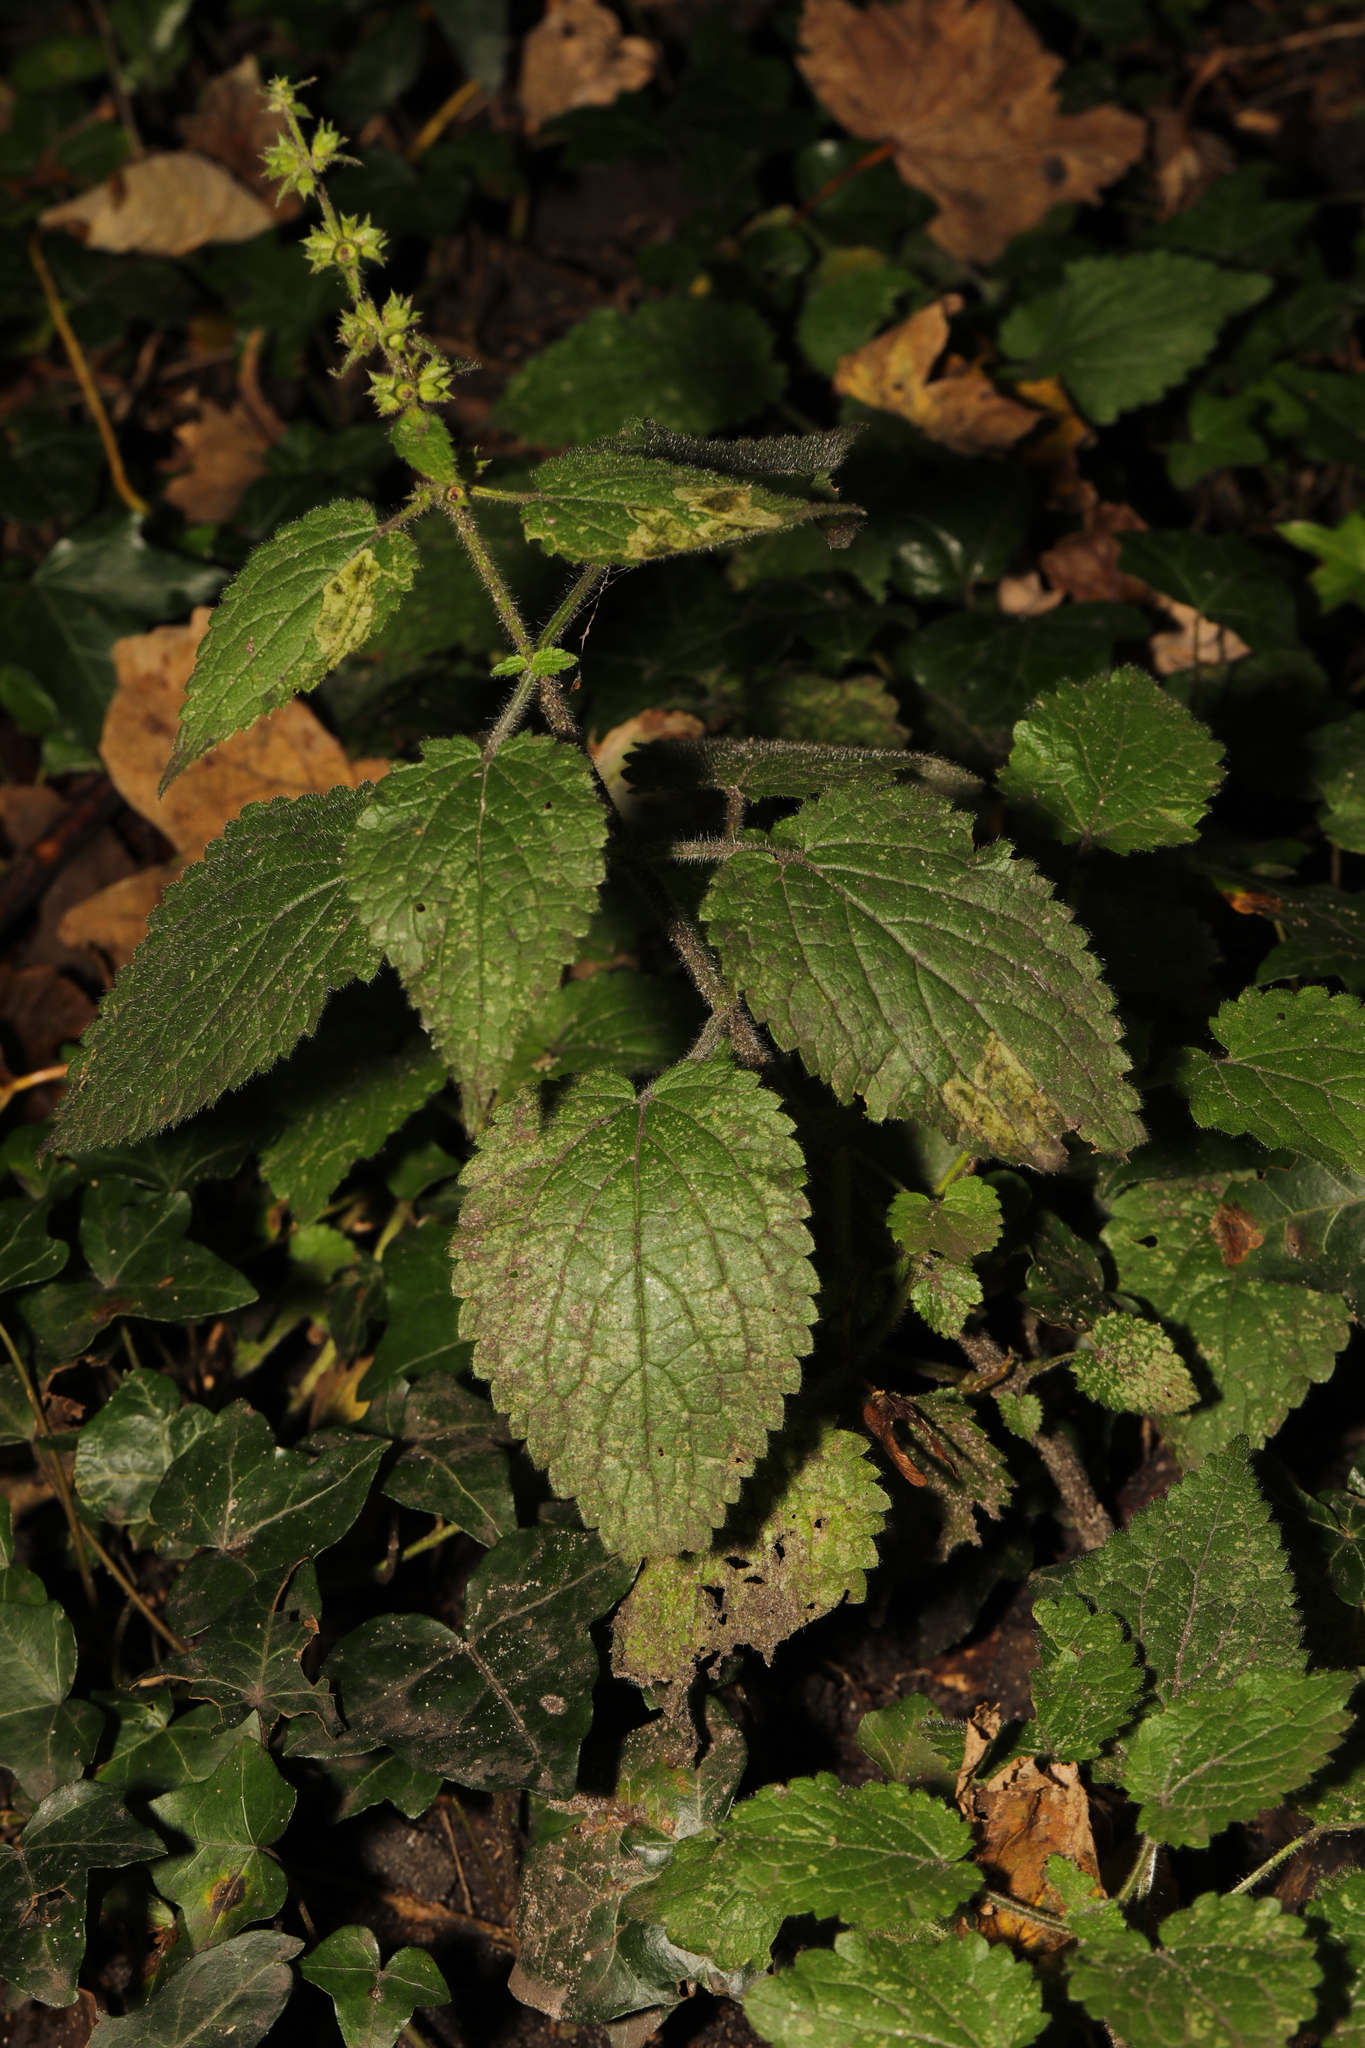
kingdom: Plantae
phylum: Tracheophyta
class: Magnoliopsida
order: Lamiales
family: Lamiaceae
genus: Stachys
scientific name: Stachys sylvatica
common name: Hedge woundwort
